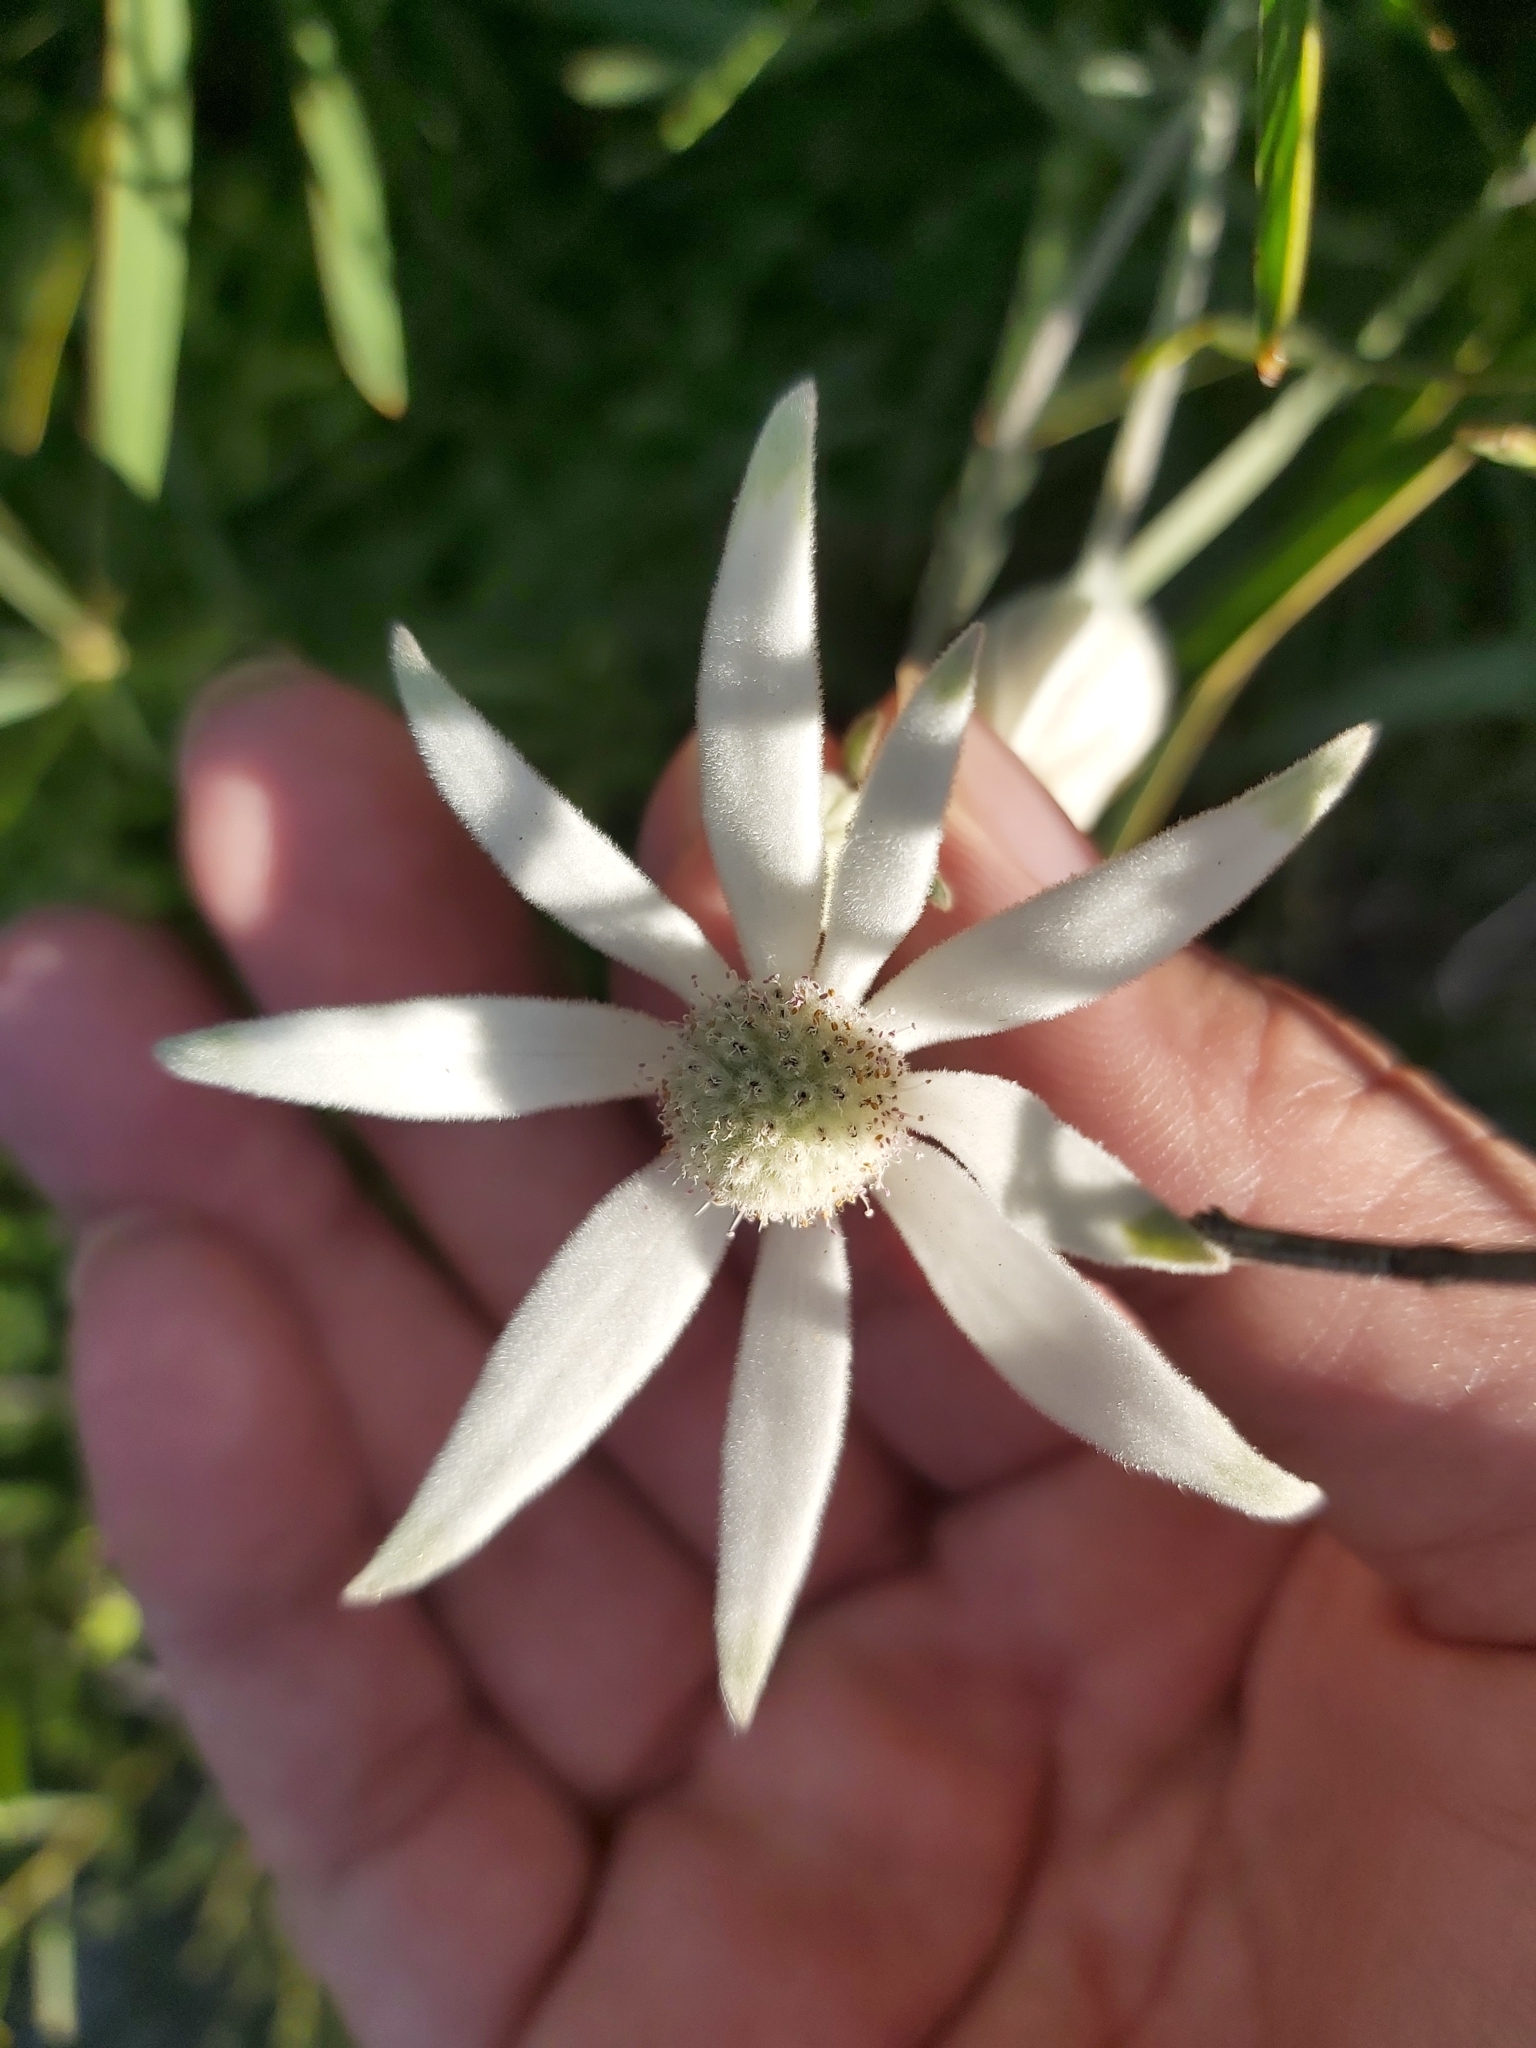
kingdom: Plantae
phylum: Tracheophyta
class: Magnoliopsida
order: Apiales
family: Apiaceae
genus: Actinotus
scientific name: Actinotus helianthi
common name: Flannel-flower
